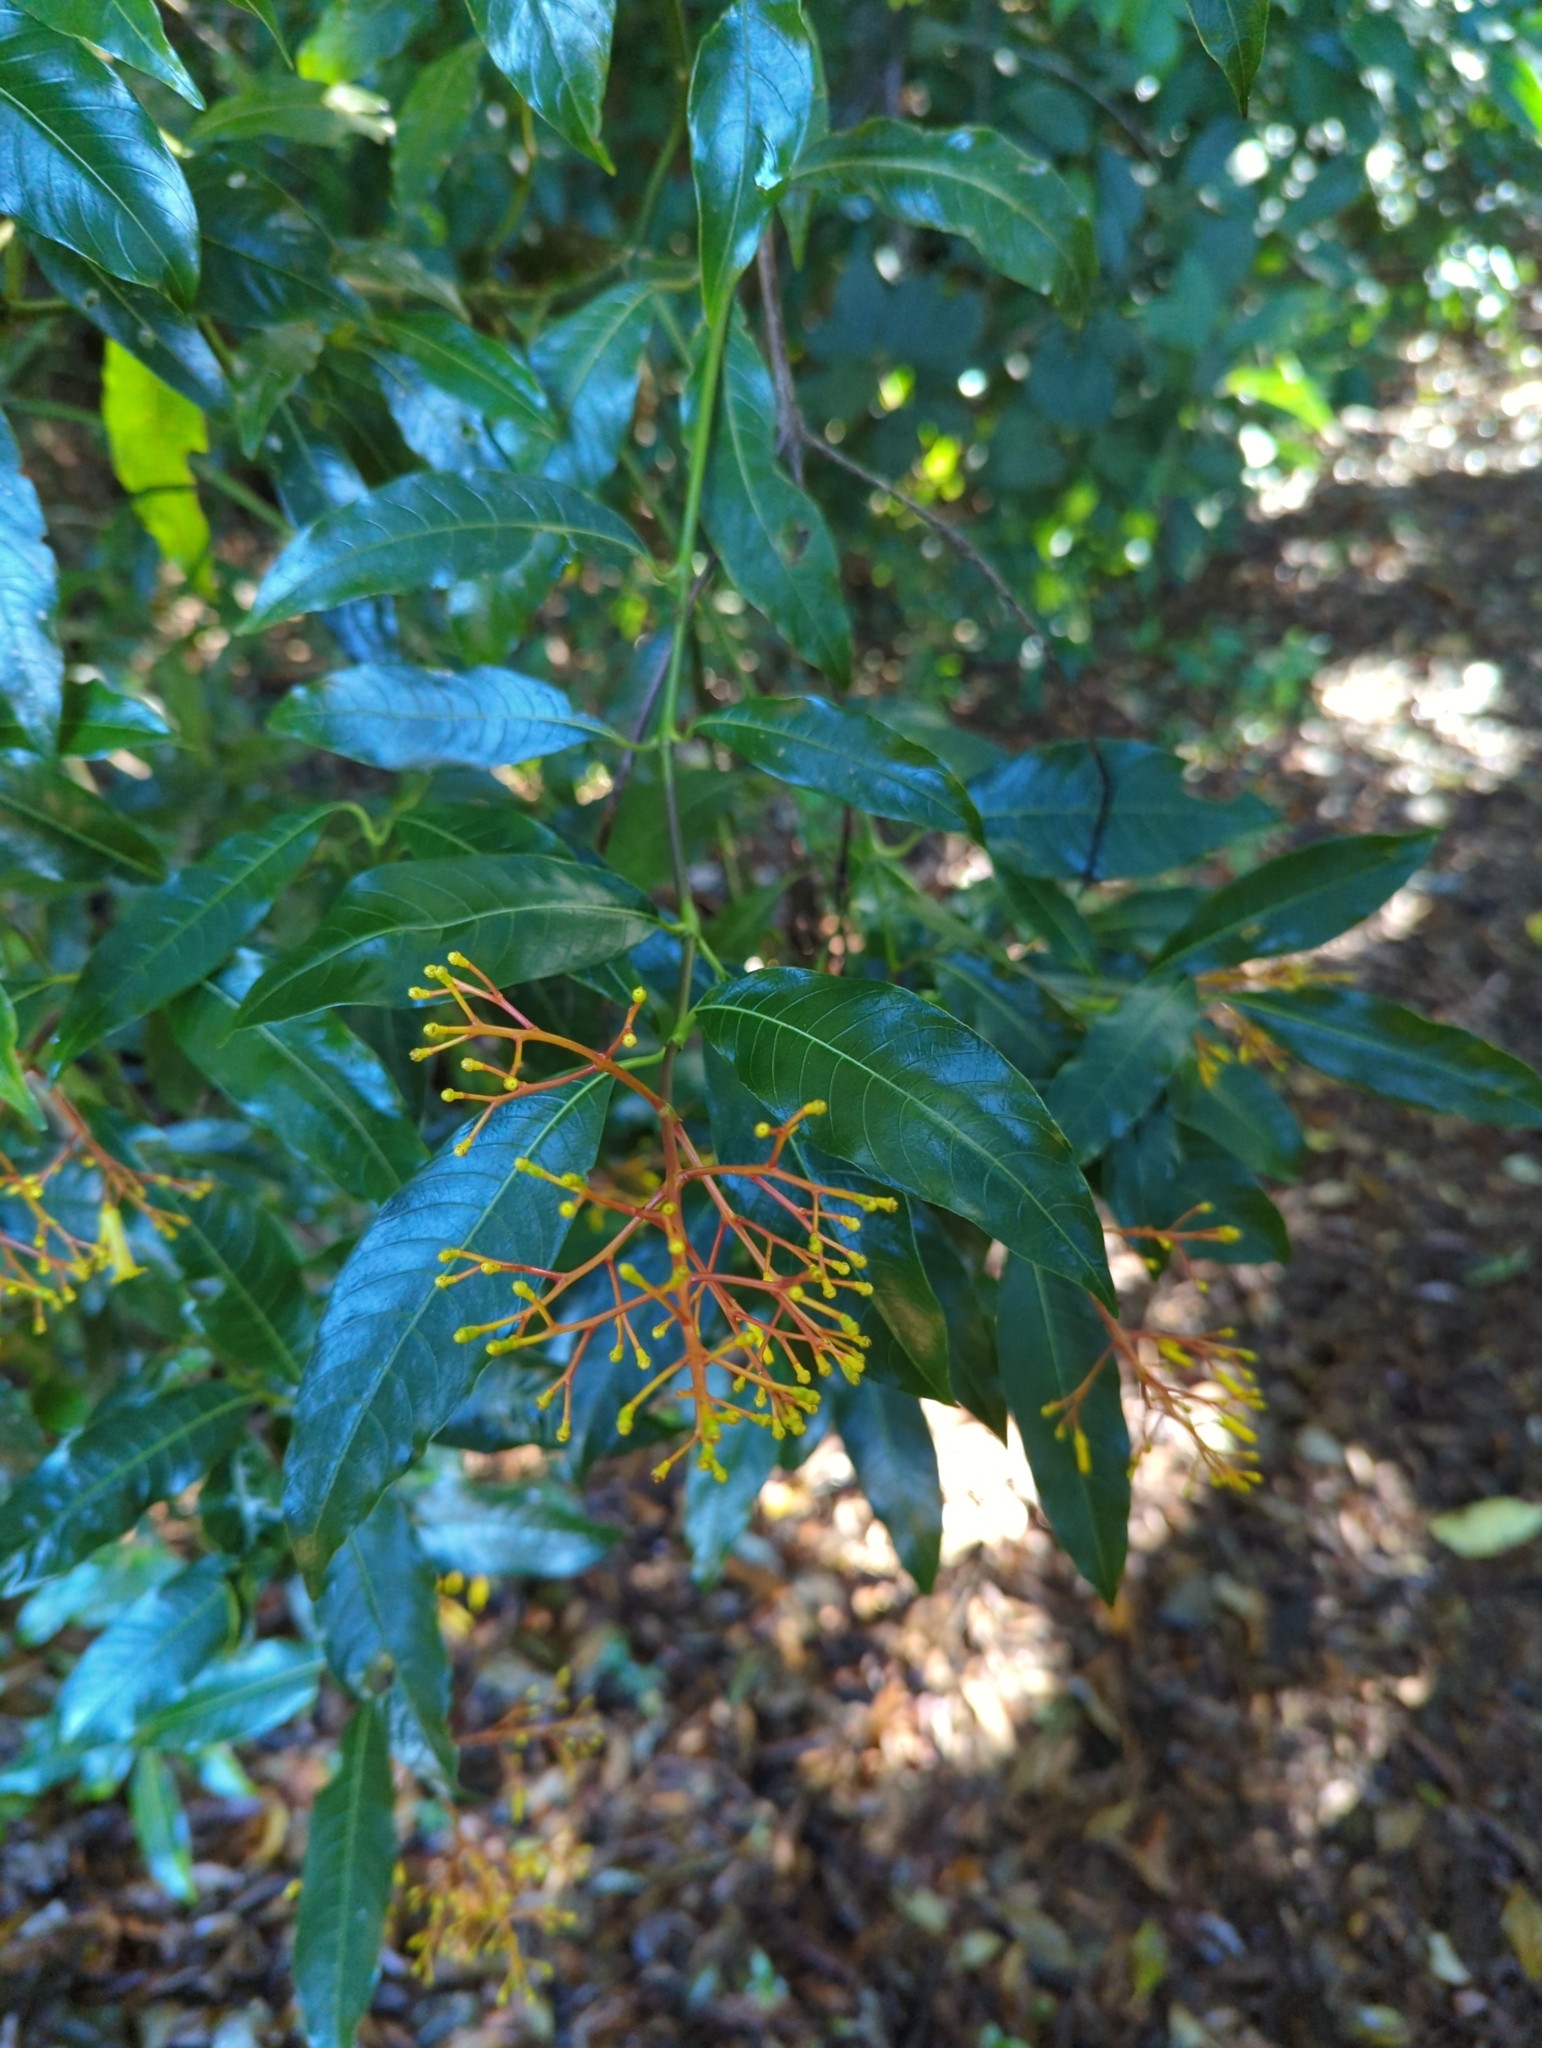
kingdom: Plantae
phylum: Tracheophyta
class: Magnoliopsida
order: Gentianales
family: Rubiaceae
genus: Palicourea
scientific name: Palicourea padifolia
